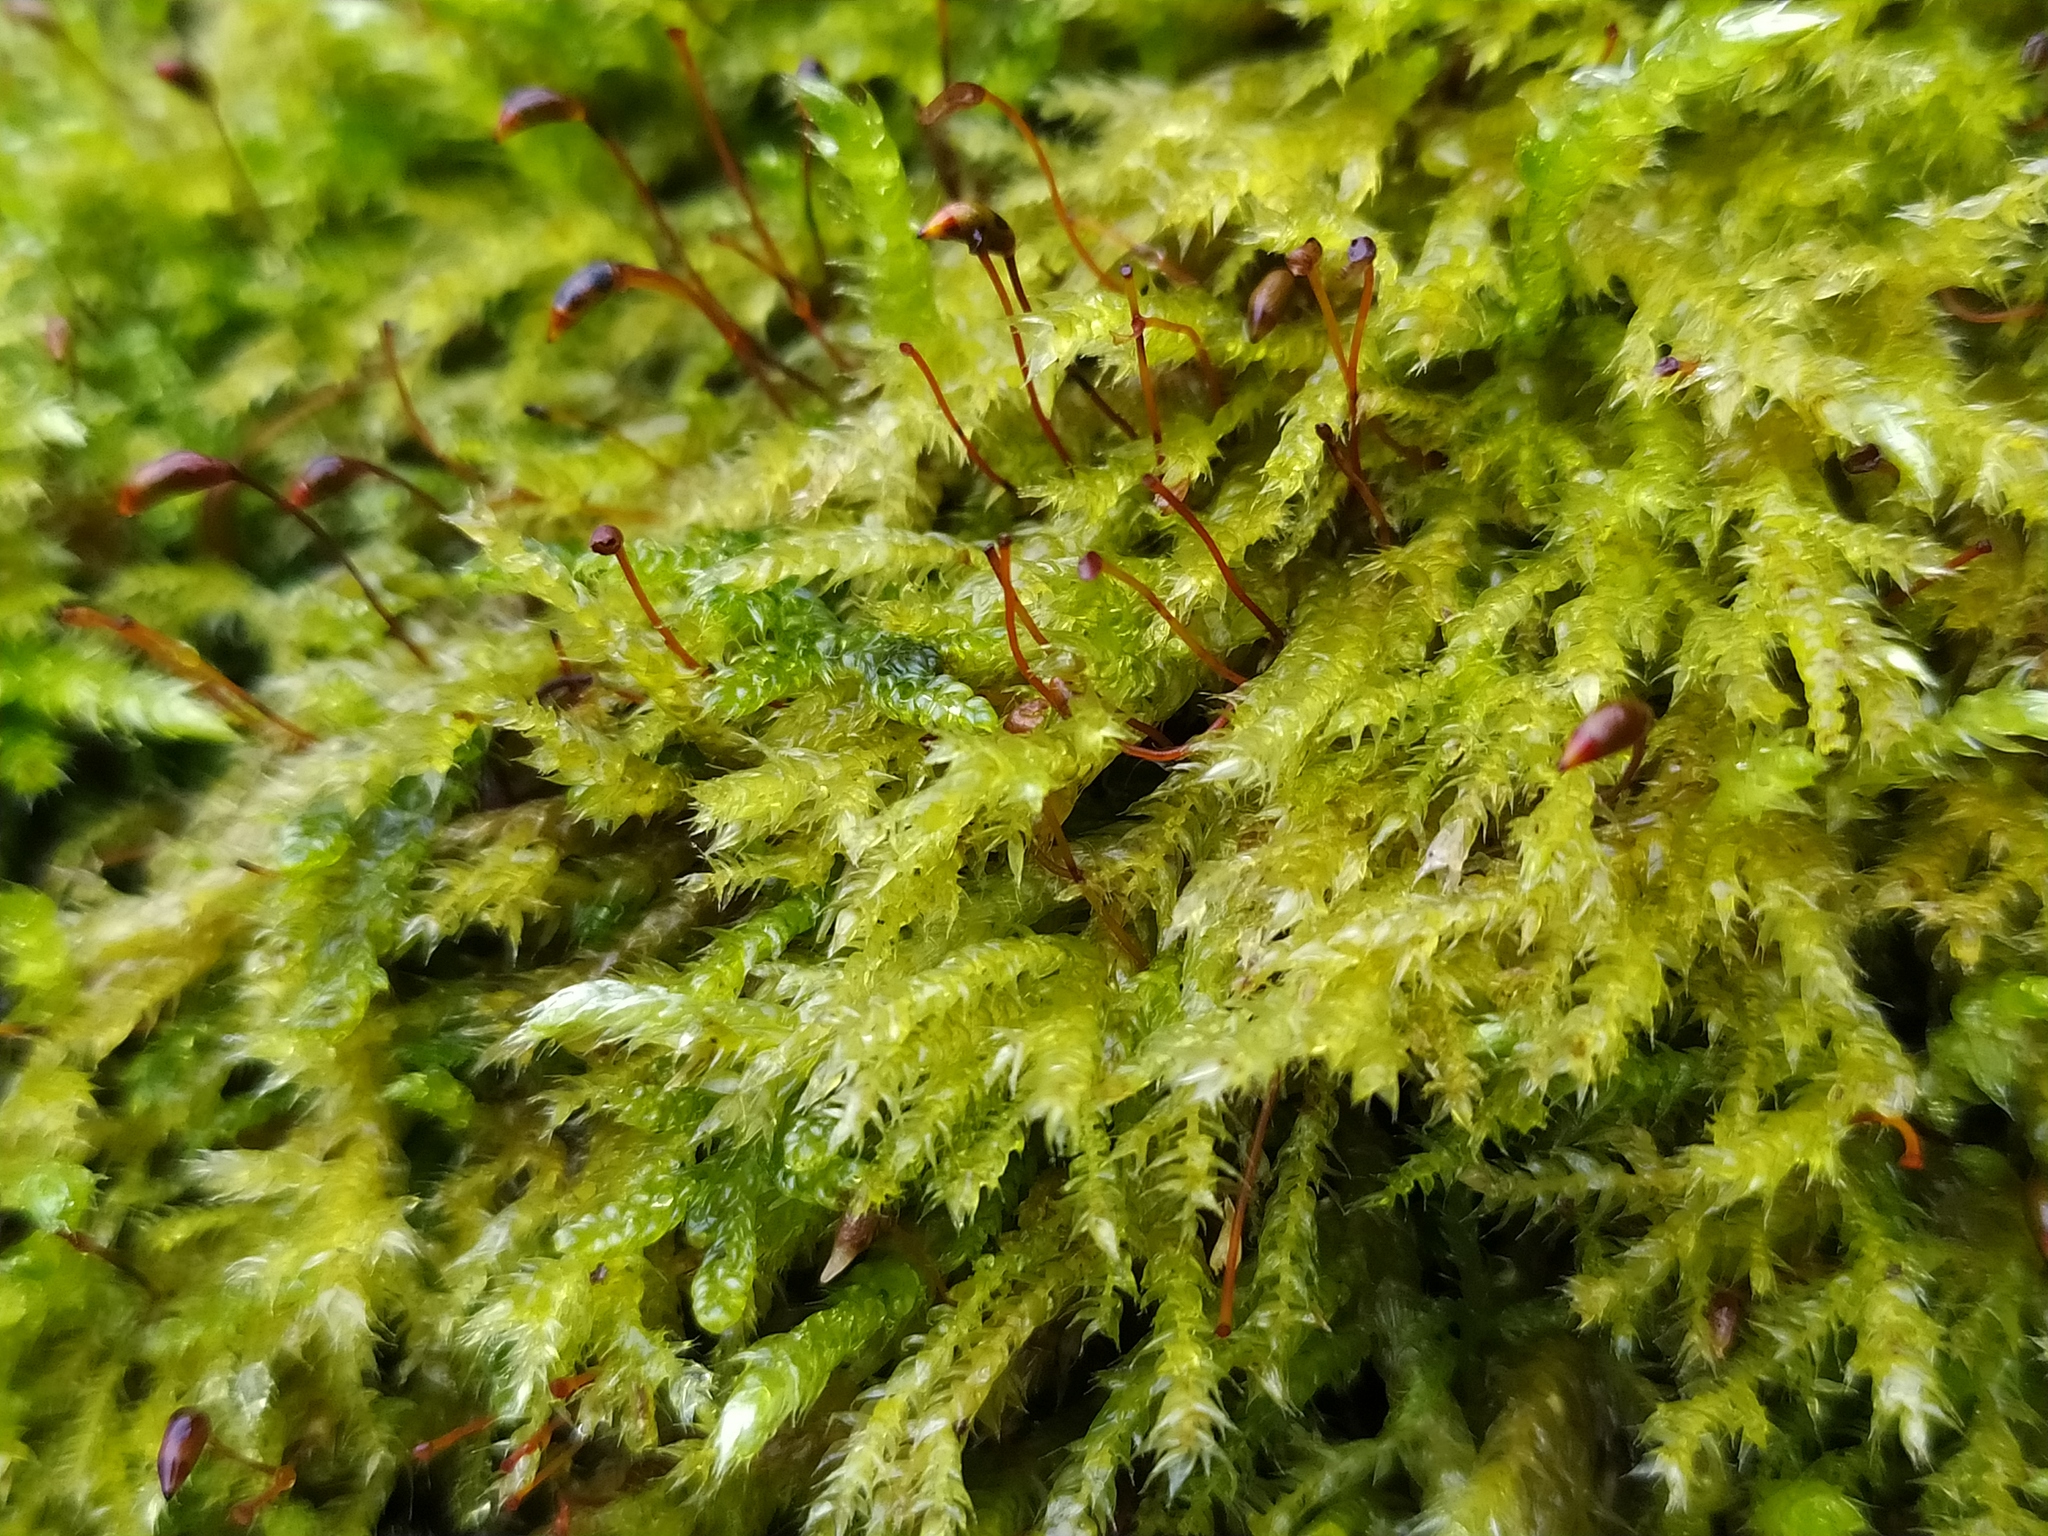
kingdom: Plantae
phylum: Bryophyta
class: Bryopsida
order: Hypnales
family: Brachytheciaceae
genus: Brachythecium
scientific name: Brachythecium rutabulum
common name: Rough-stalked feather-moss
